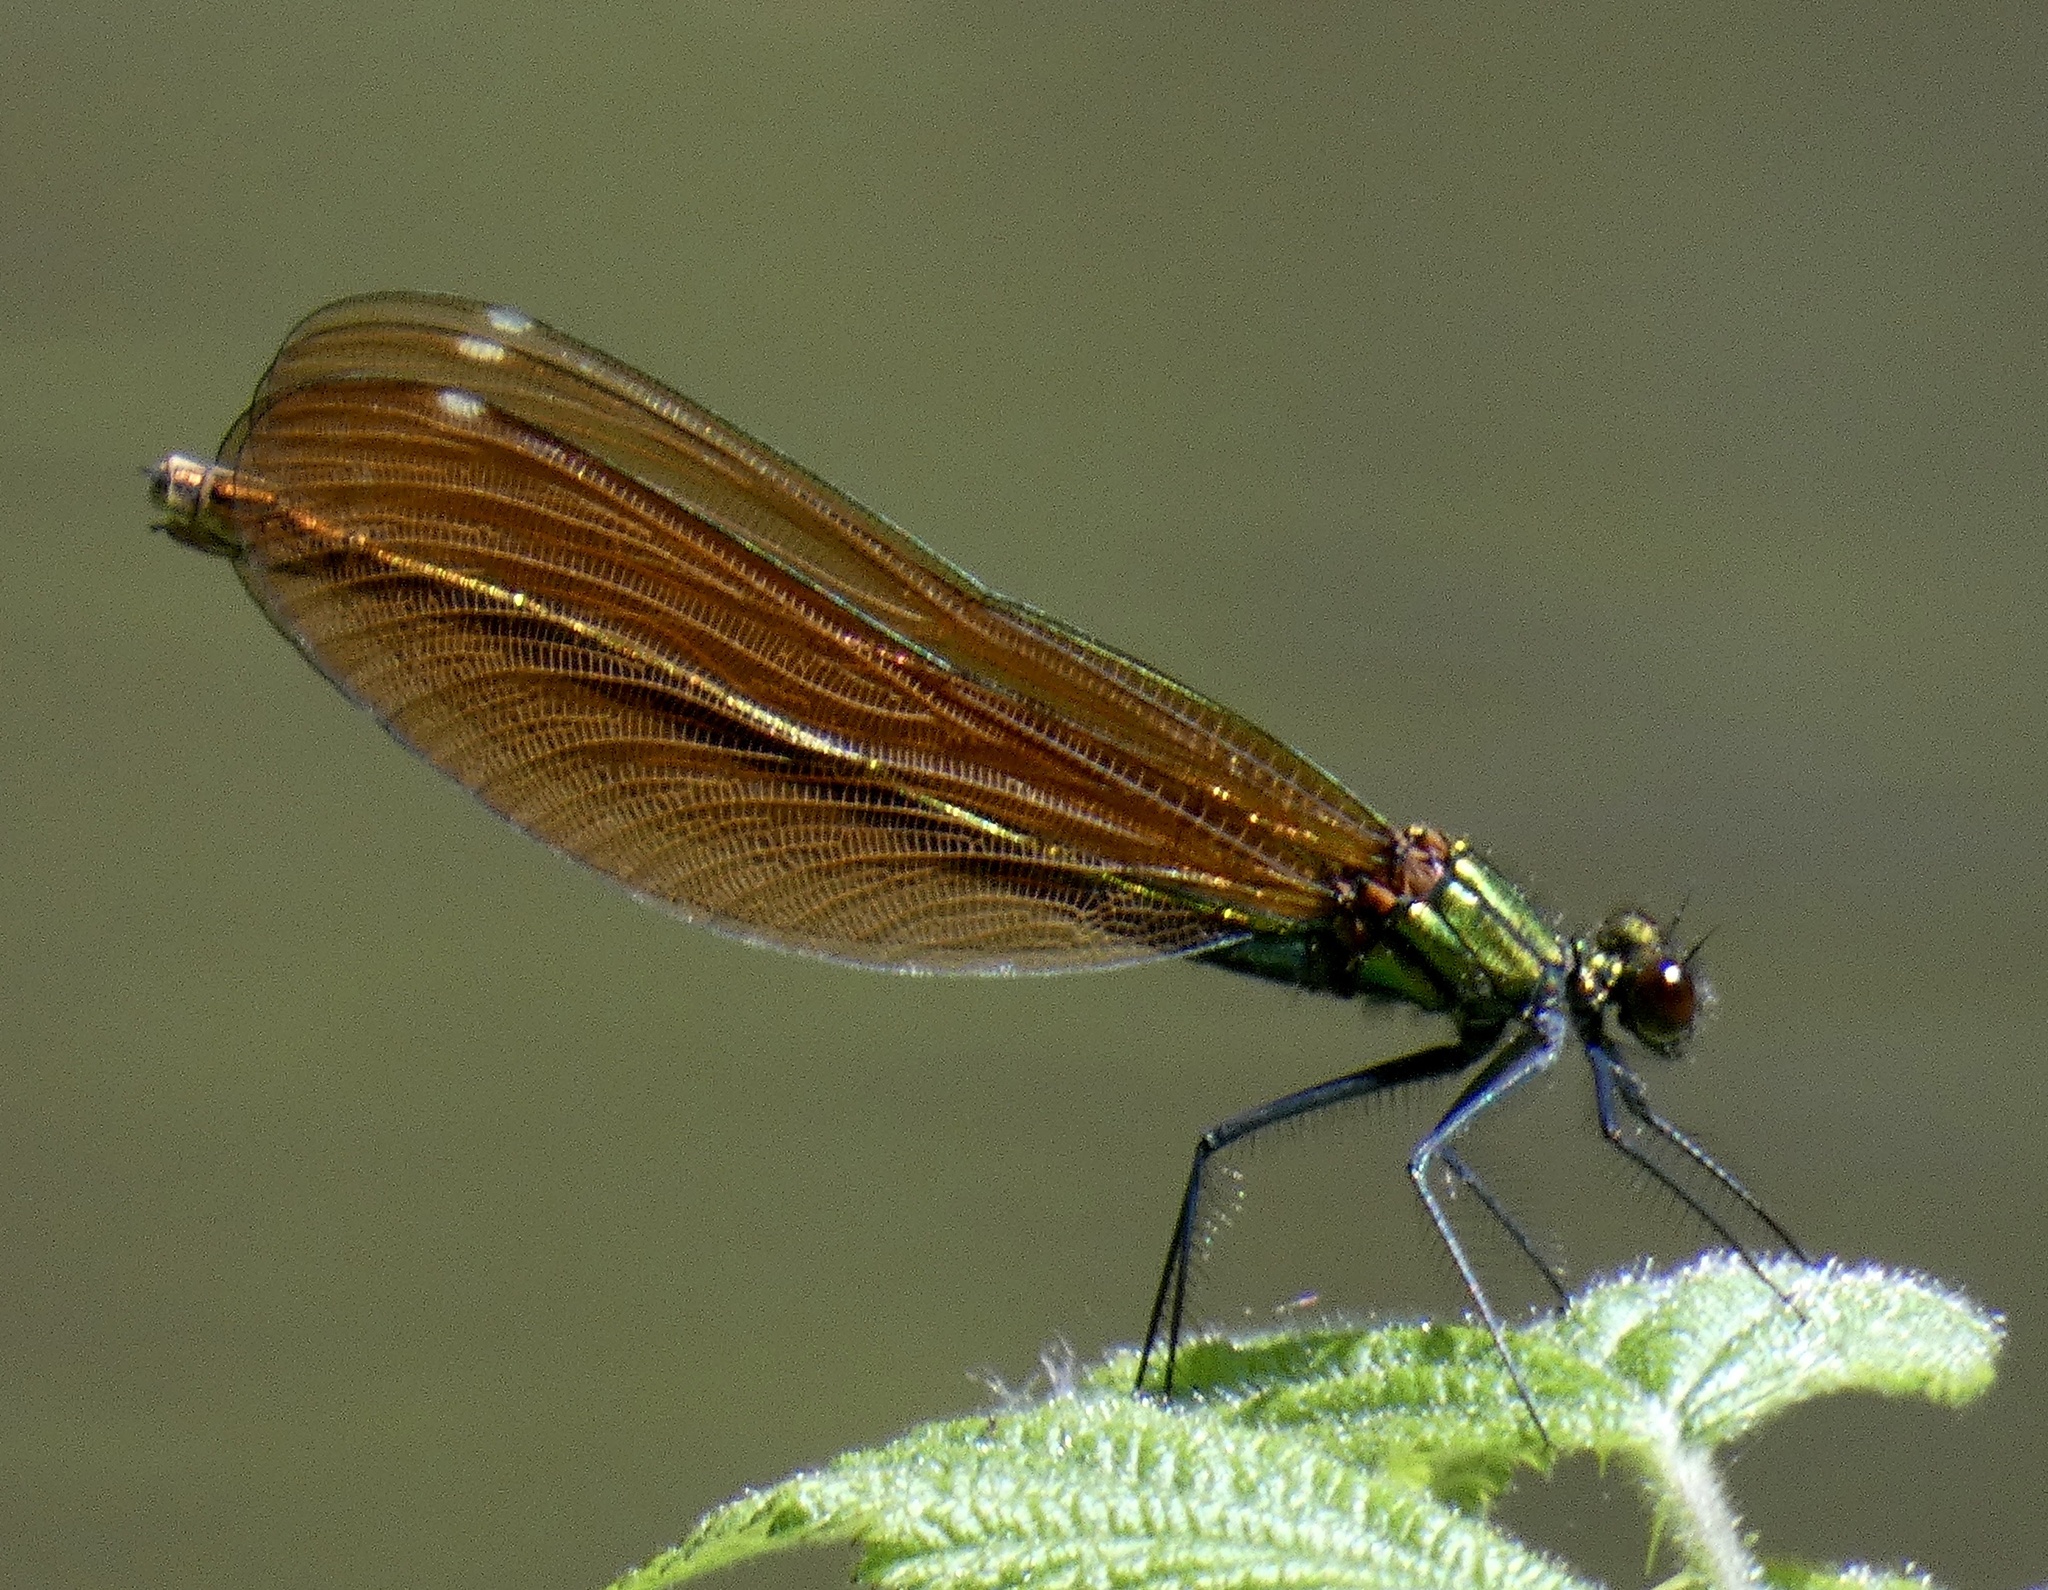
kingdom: Animalia
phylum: Arthropoda
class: Insecta
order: Odonata
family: Calopterygidae
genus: Calopteryx
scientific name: Calopteryx virgo
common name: Beautiful demoiselle
